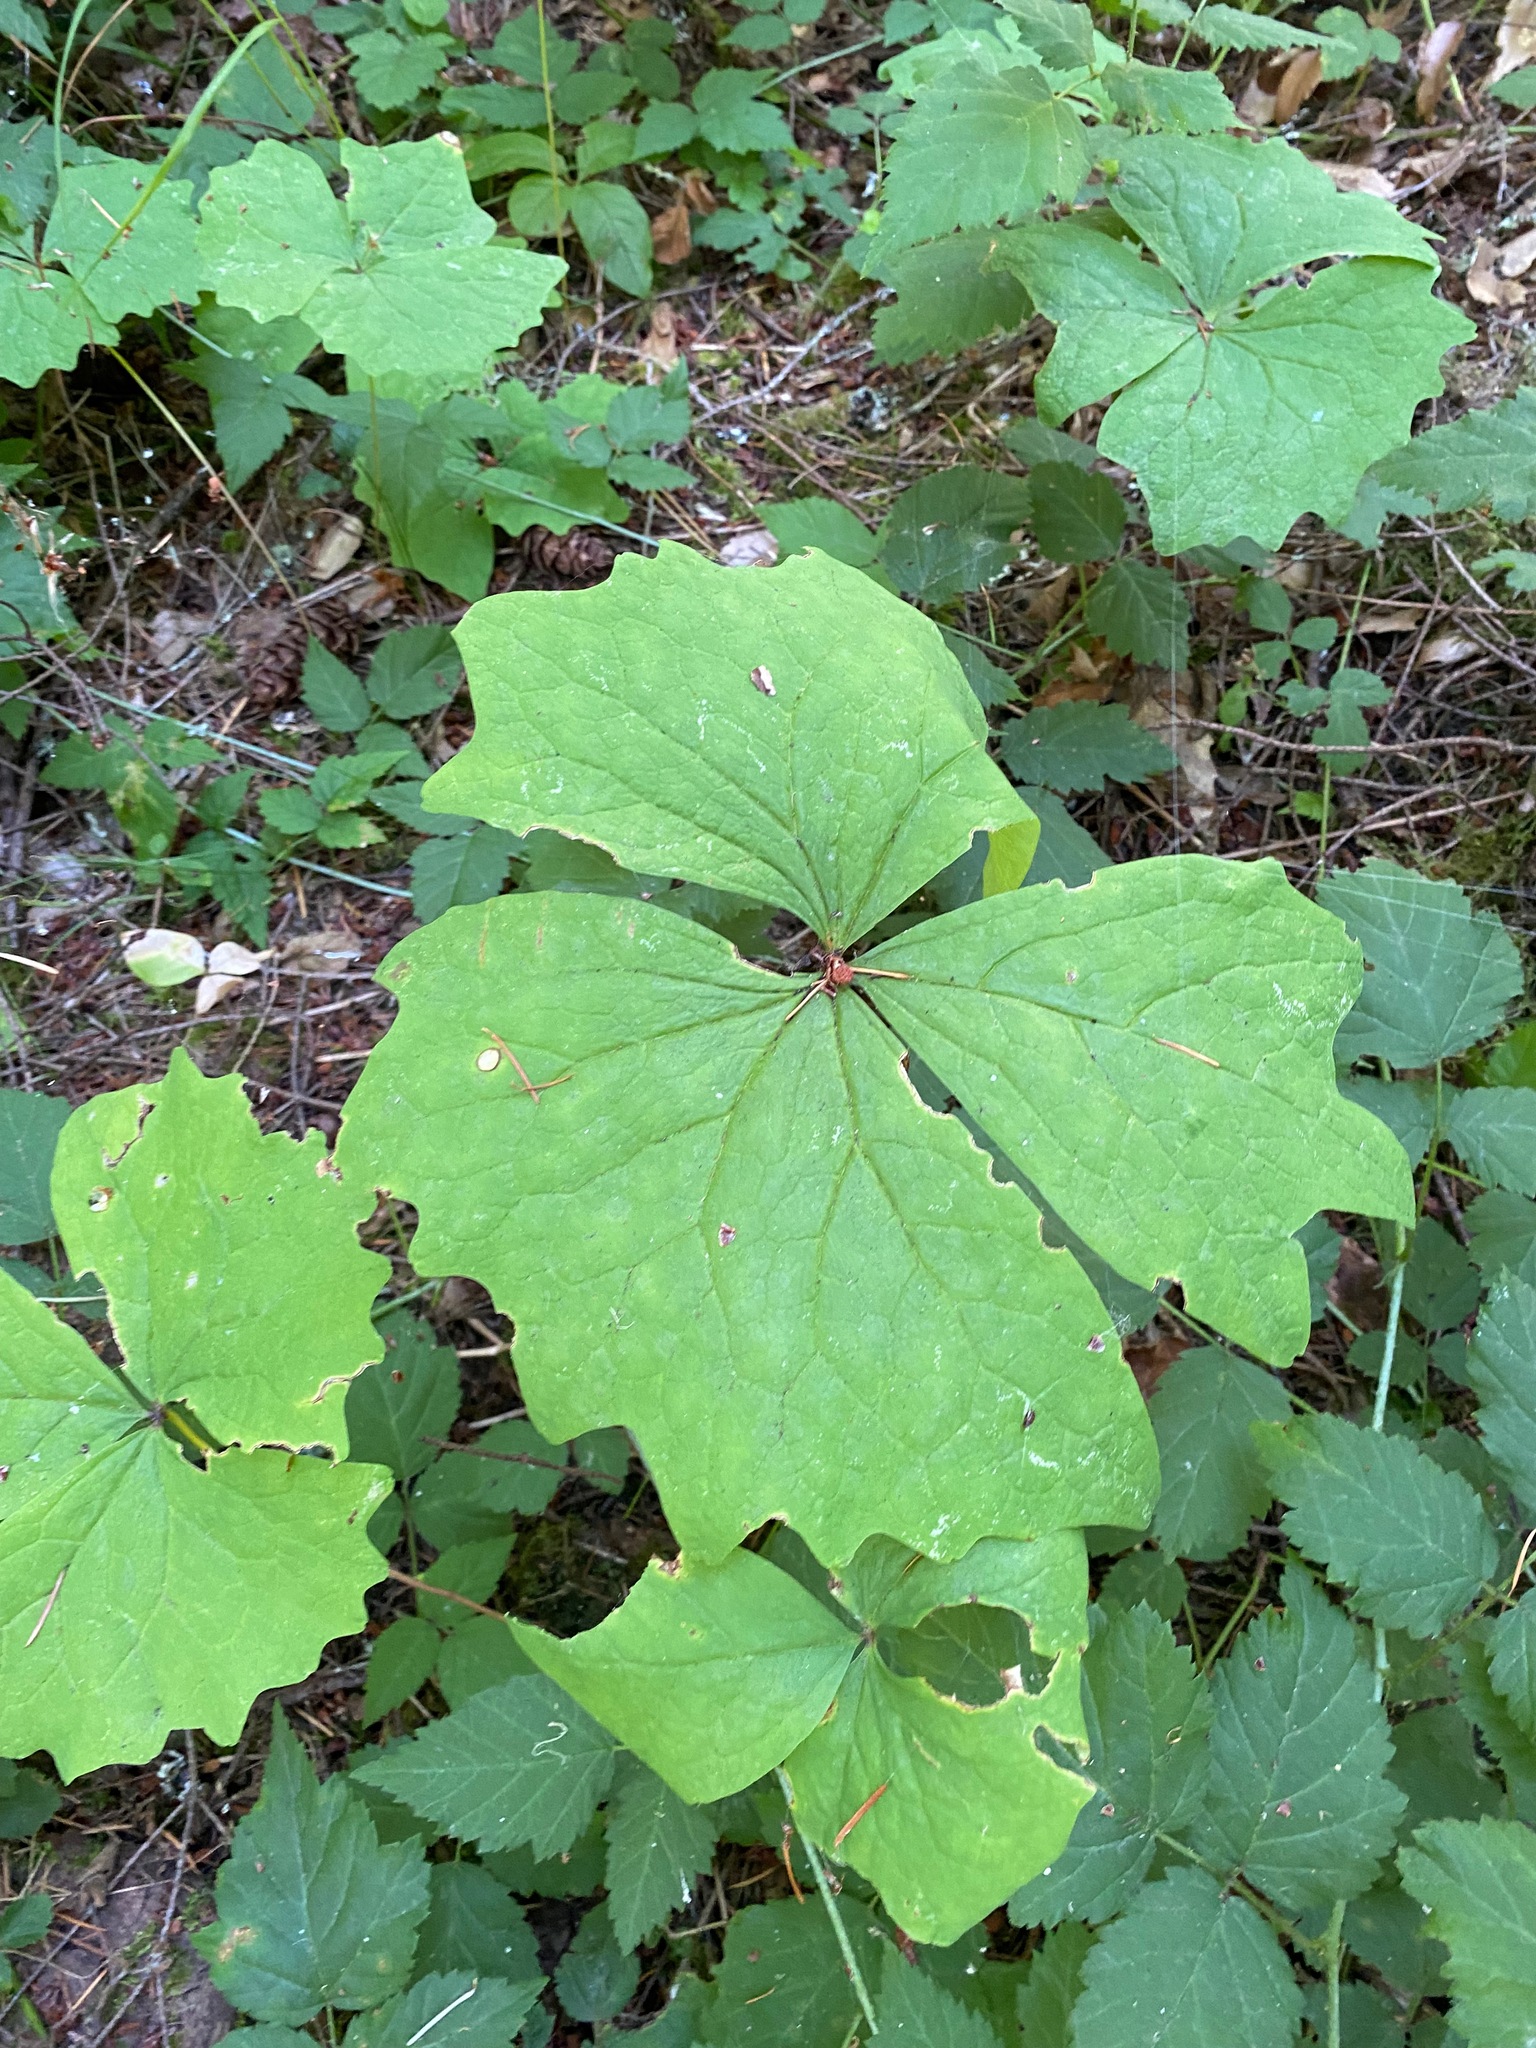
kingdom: Plantae
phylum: Tracheophyta
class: Magnoliopsida
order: Ranunculales
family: Berberidaceae
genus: Achlys
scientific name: Achlys triphylla
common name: Vanilla-leaf
